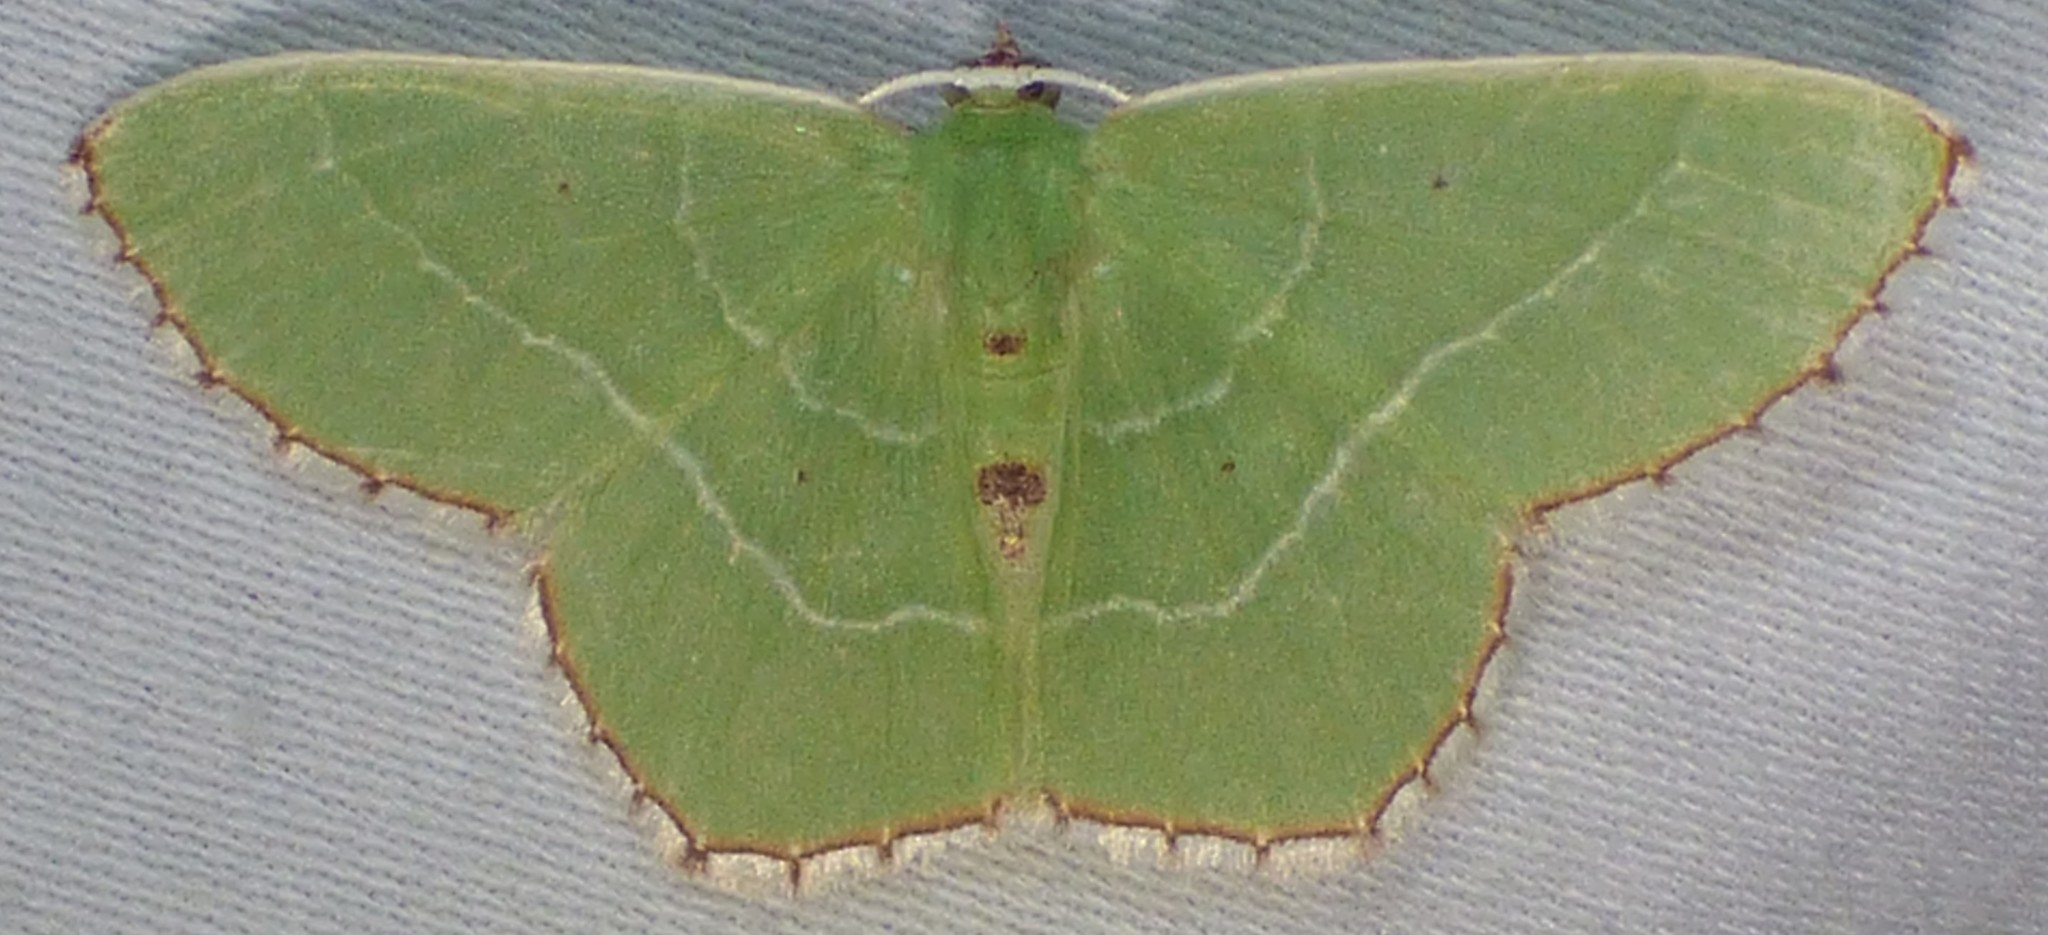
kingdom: Animalia
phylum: Arthropoda
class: Insecta
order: Lepidoptera
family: Geometridae
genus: Nemoria
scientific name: Nemoria saturiba
